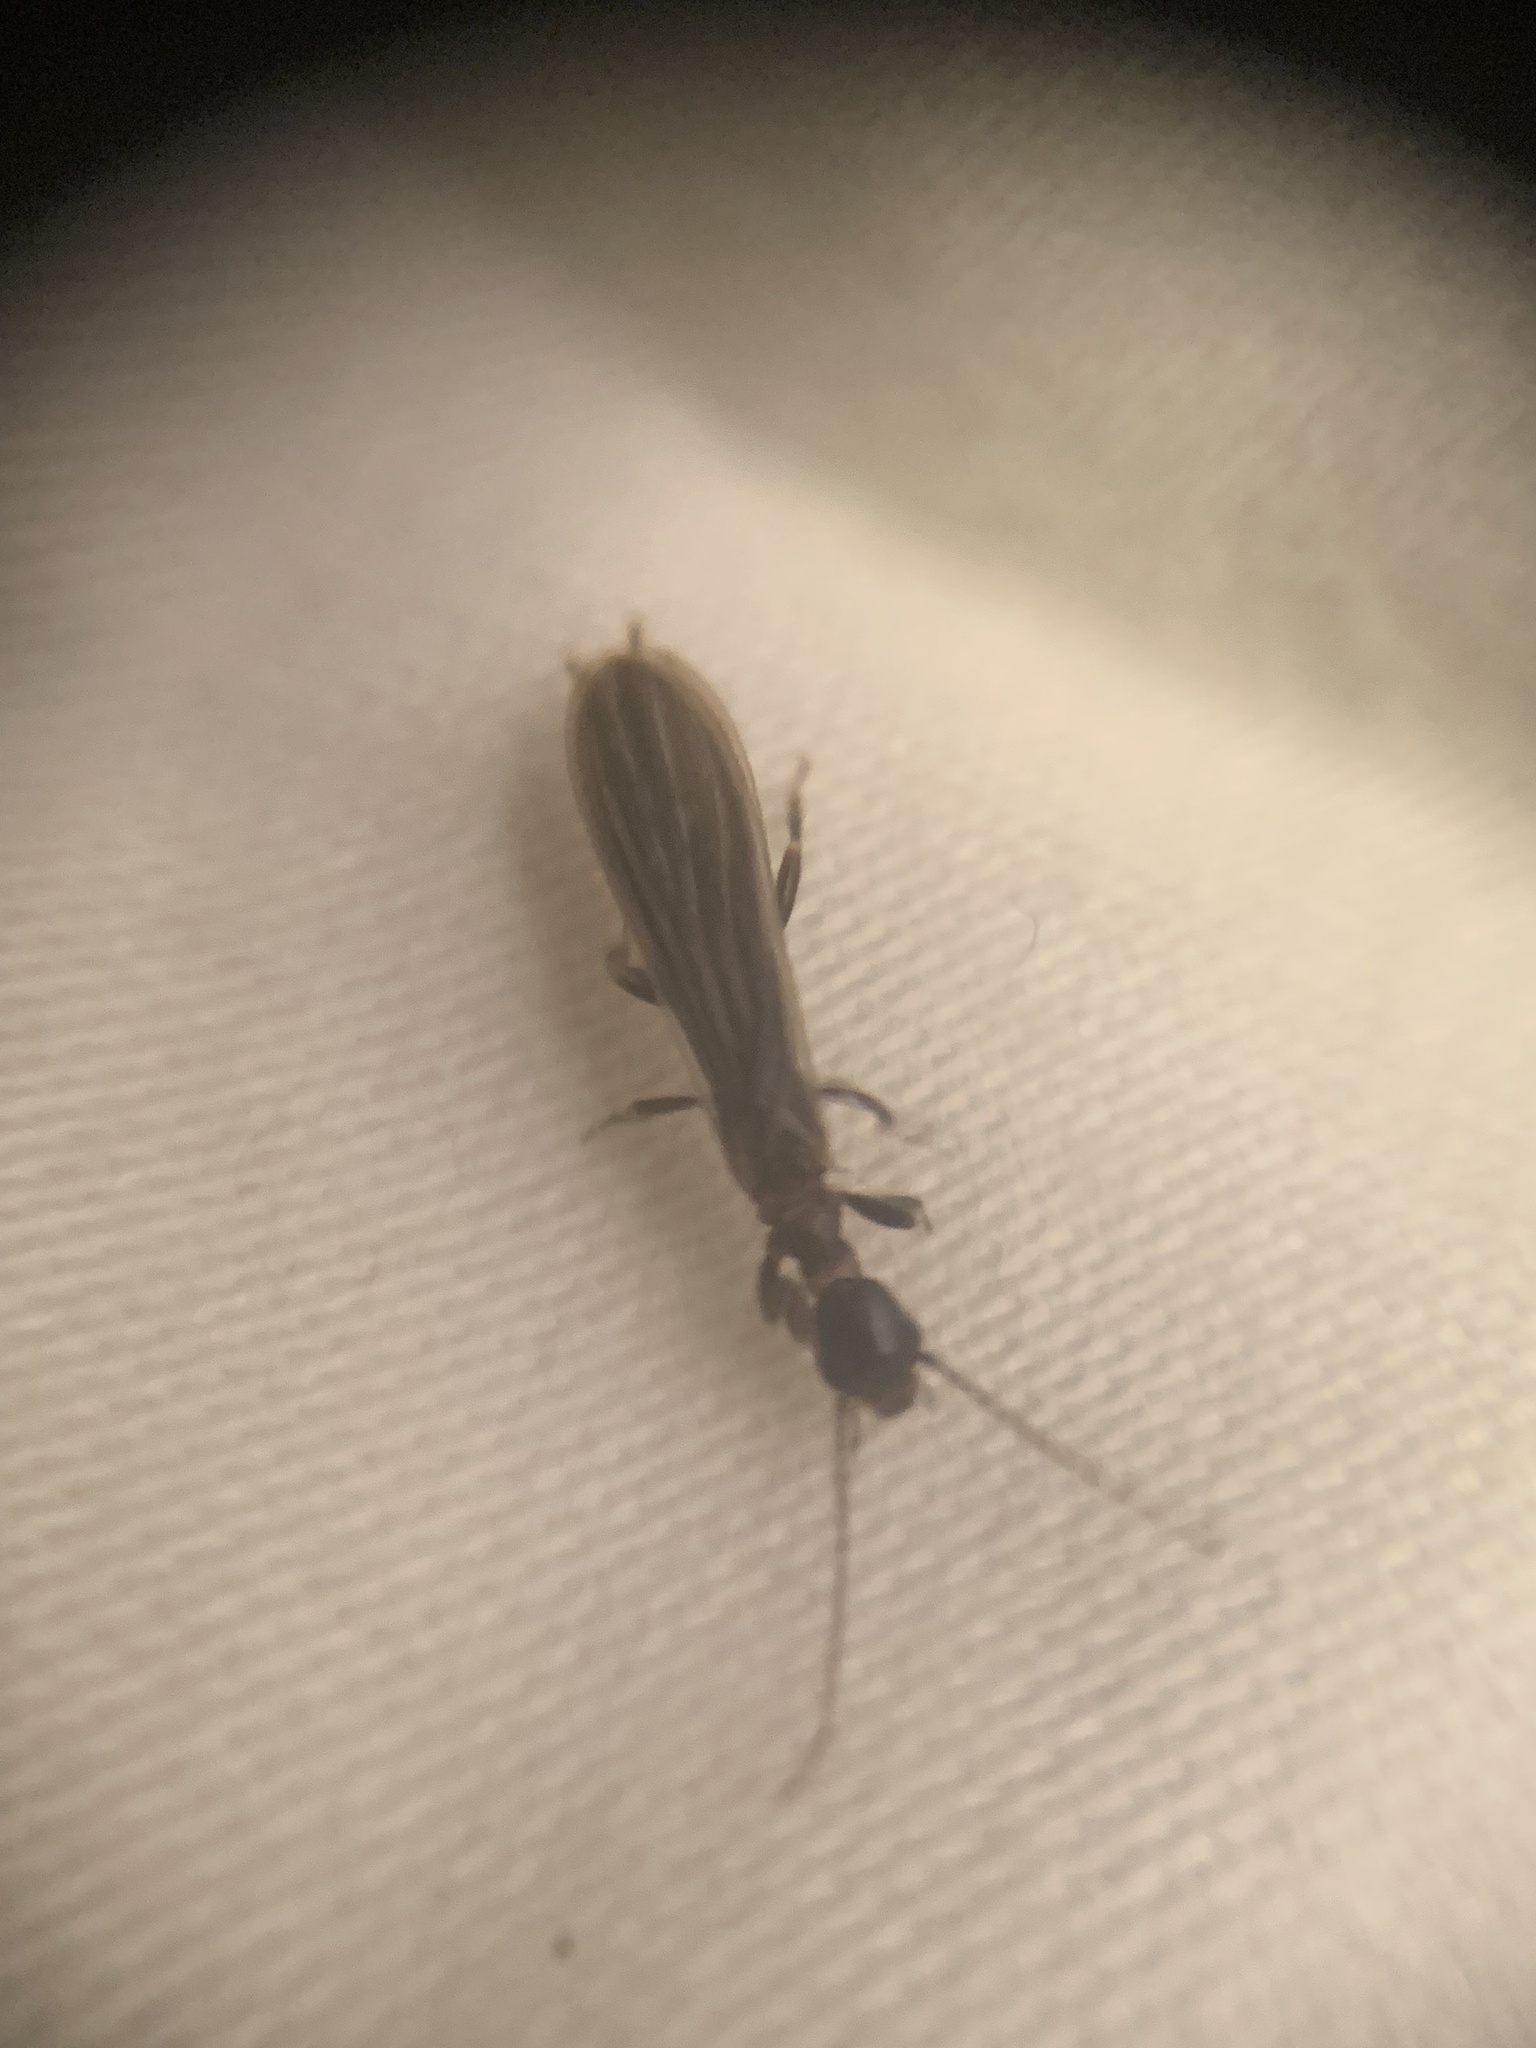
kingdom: Animalia
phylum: Arthropoda
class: Insecta
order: Embioptera
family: Oligotomidae
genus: Oligotoma
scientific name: Oligotoma nigra
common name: Black webspinner
